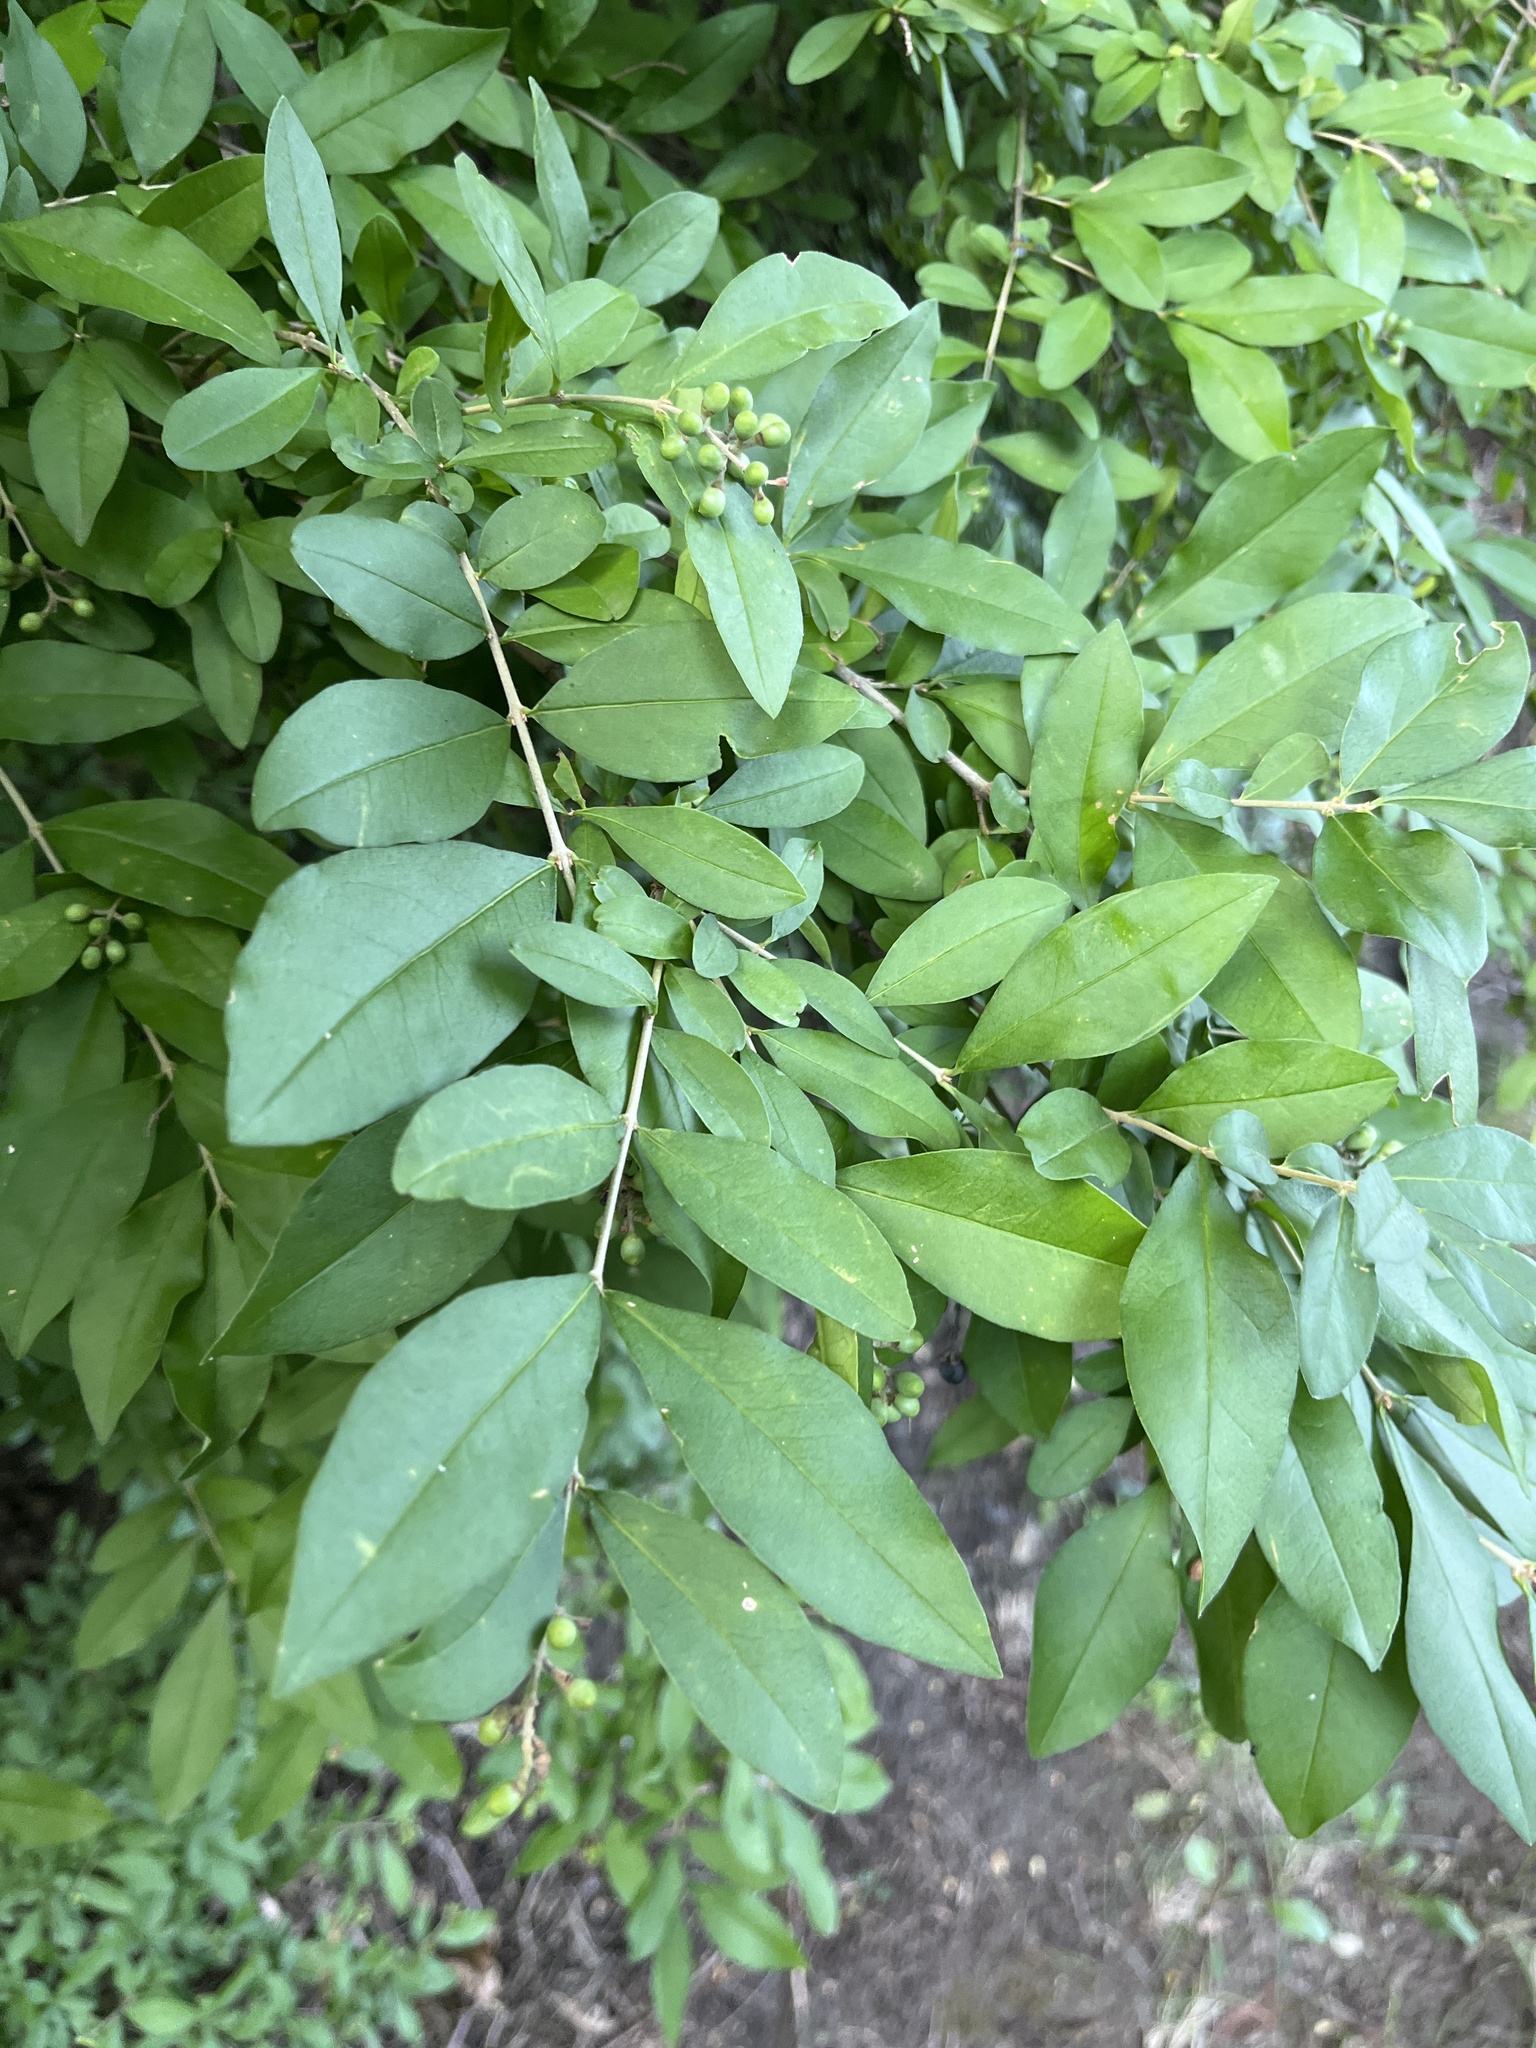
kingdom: Plantae
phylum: Tracheophyta
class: Magnoliopsida
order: Lamiales
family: Oleaceae
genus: Ligustrum
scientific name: Ligustrum obtusifolium
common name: Border privet
